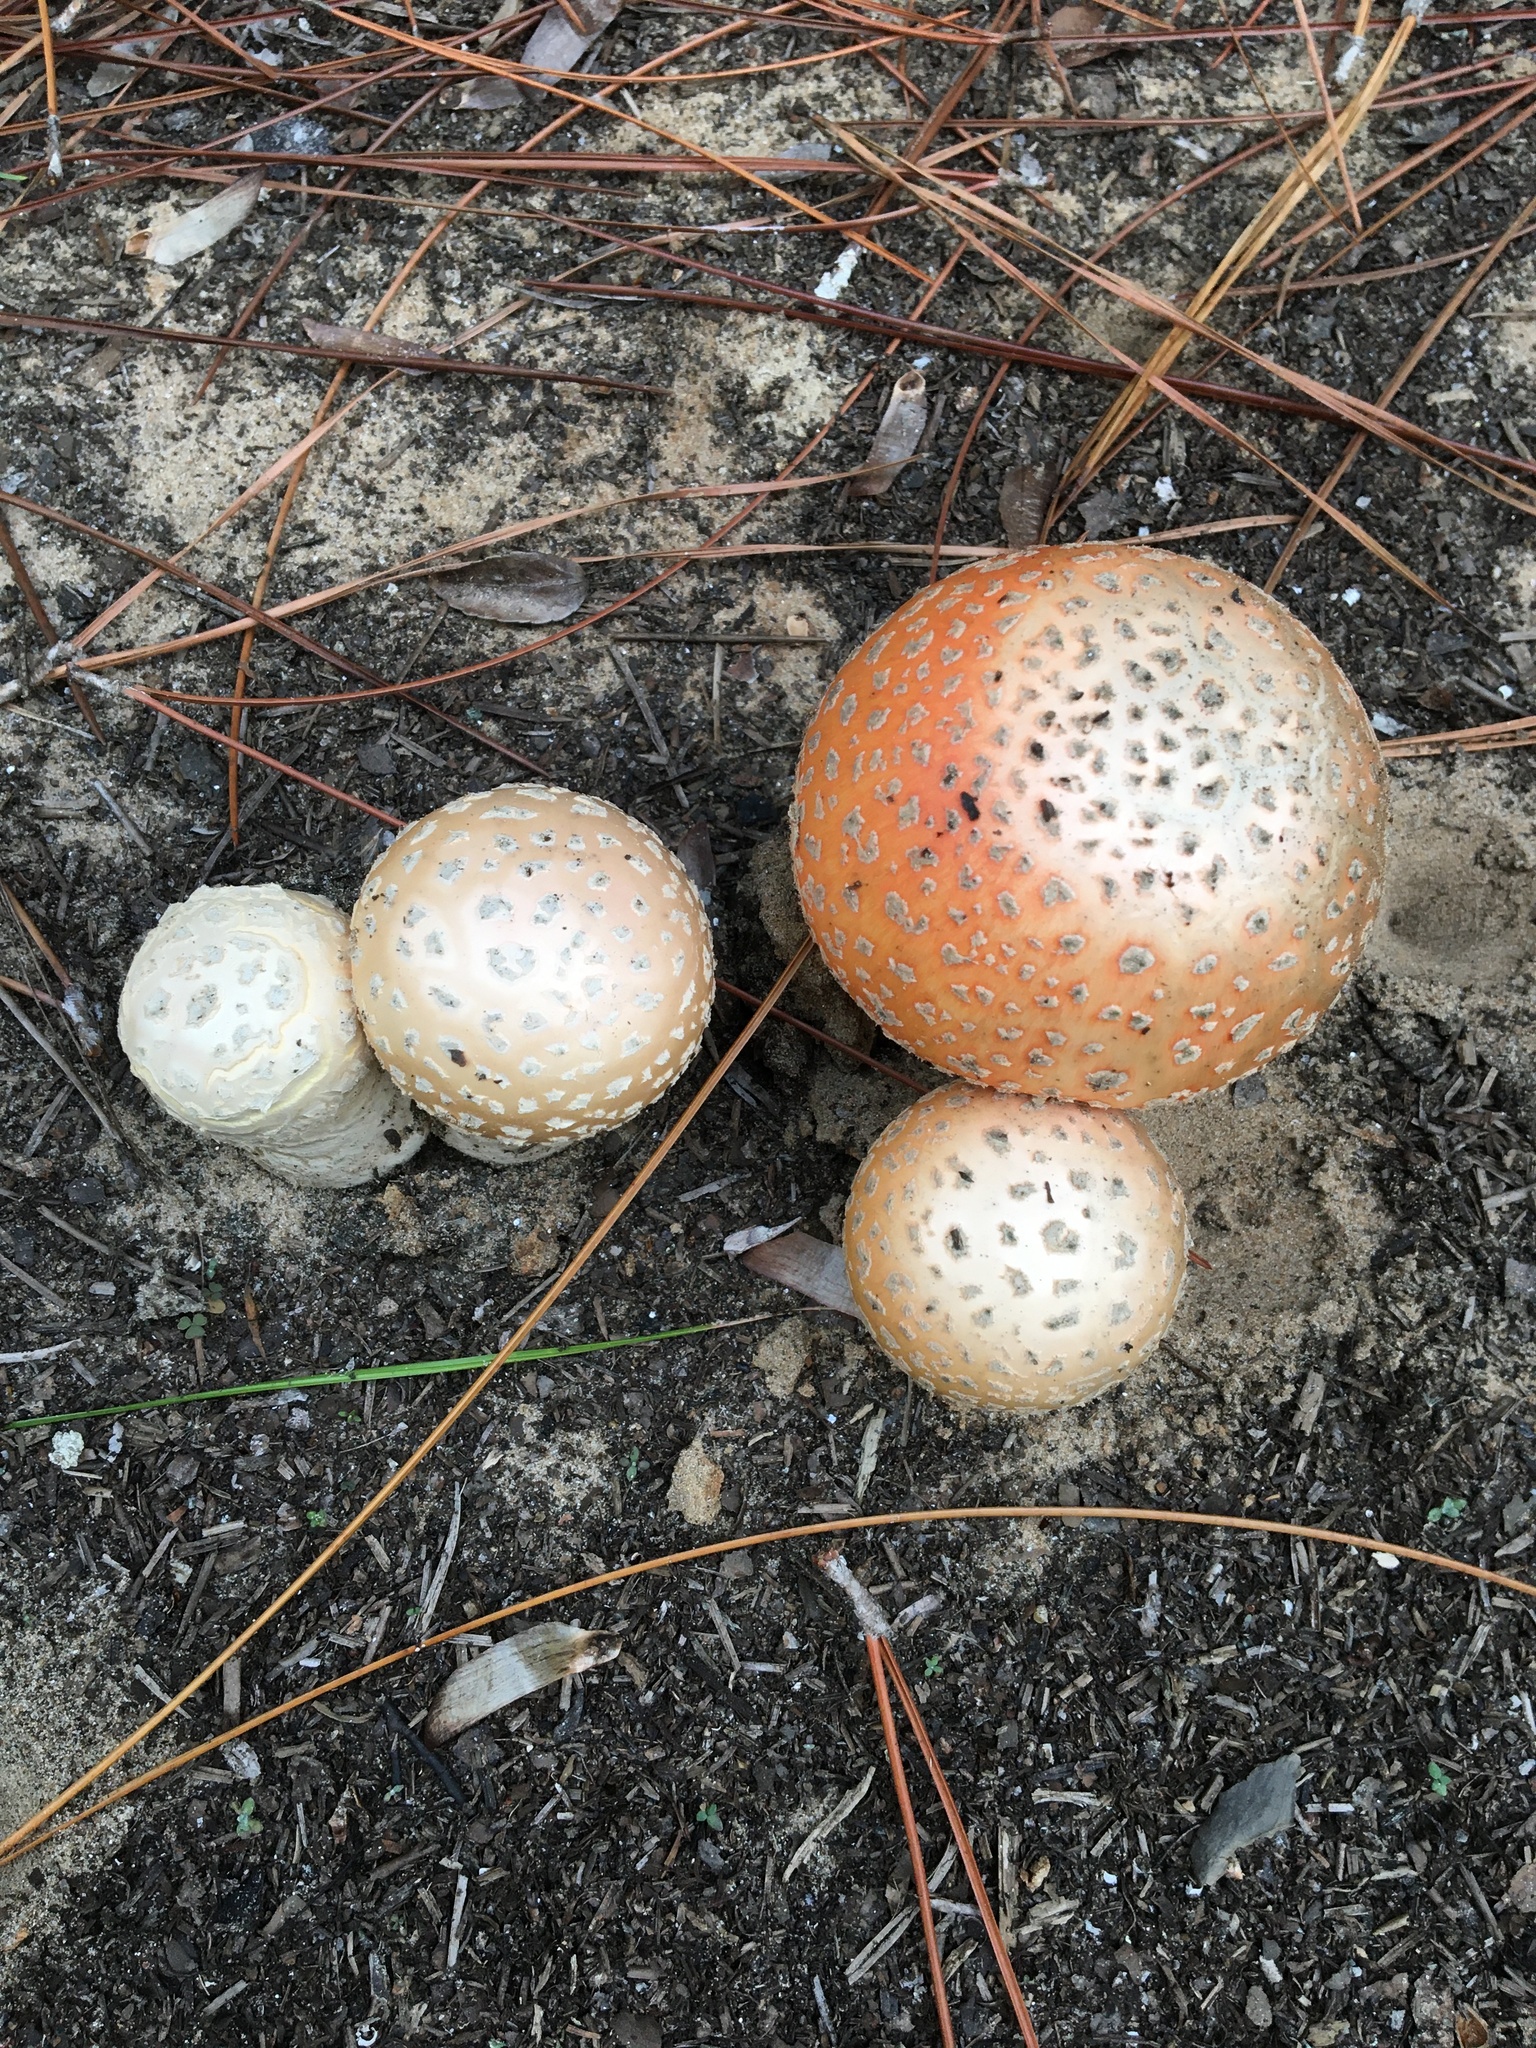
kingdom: Fungi
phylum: Basidiomycota
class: Agaricomycetes
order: Agaricales
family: Amanitaceae
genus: Amanita
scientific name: Amanita persicina
